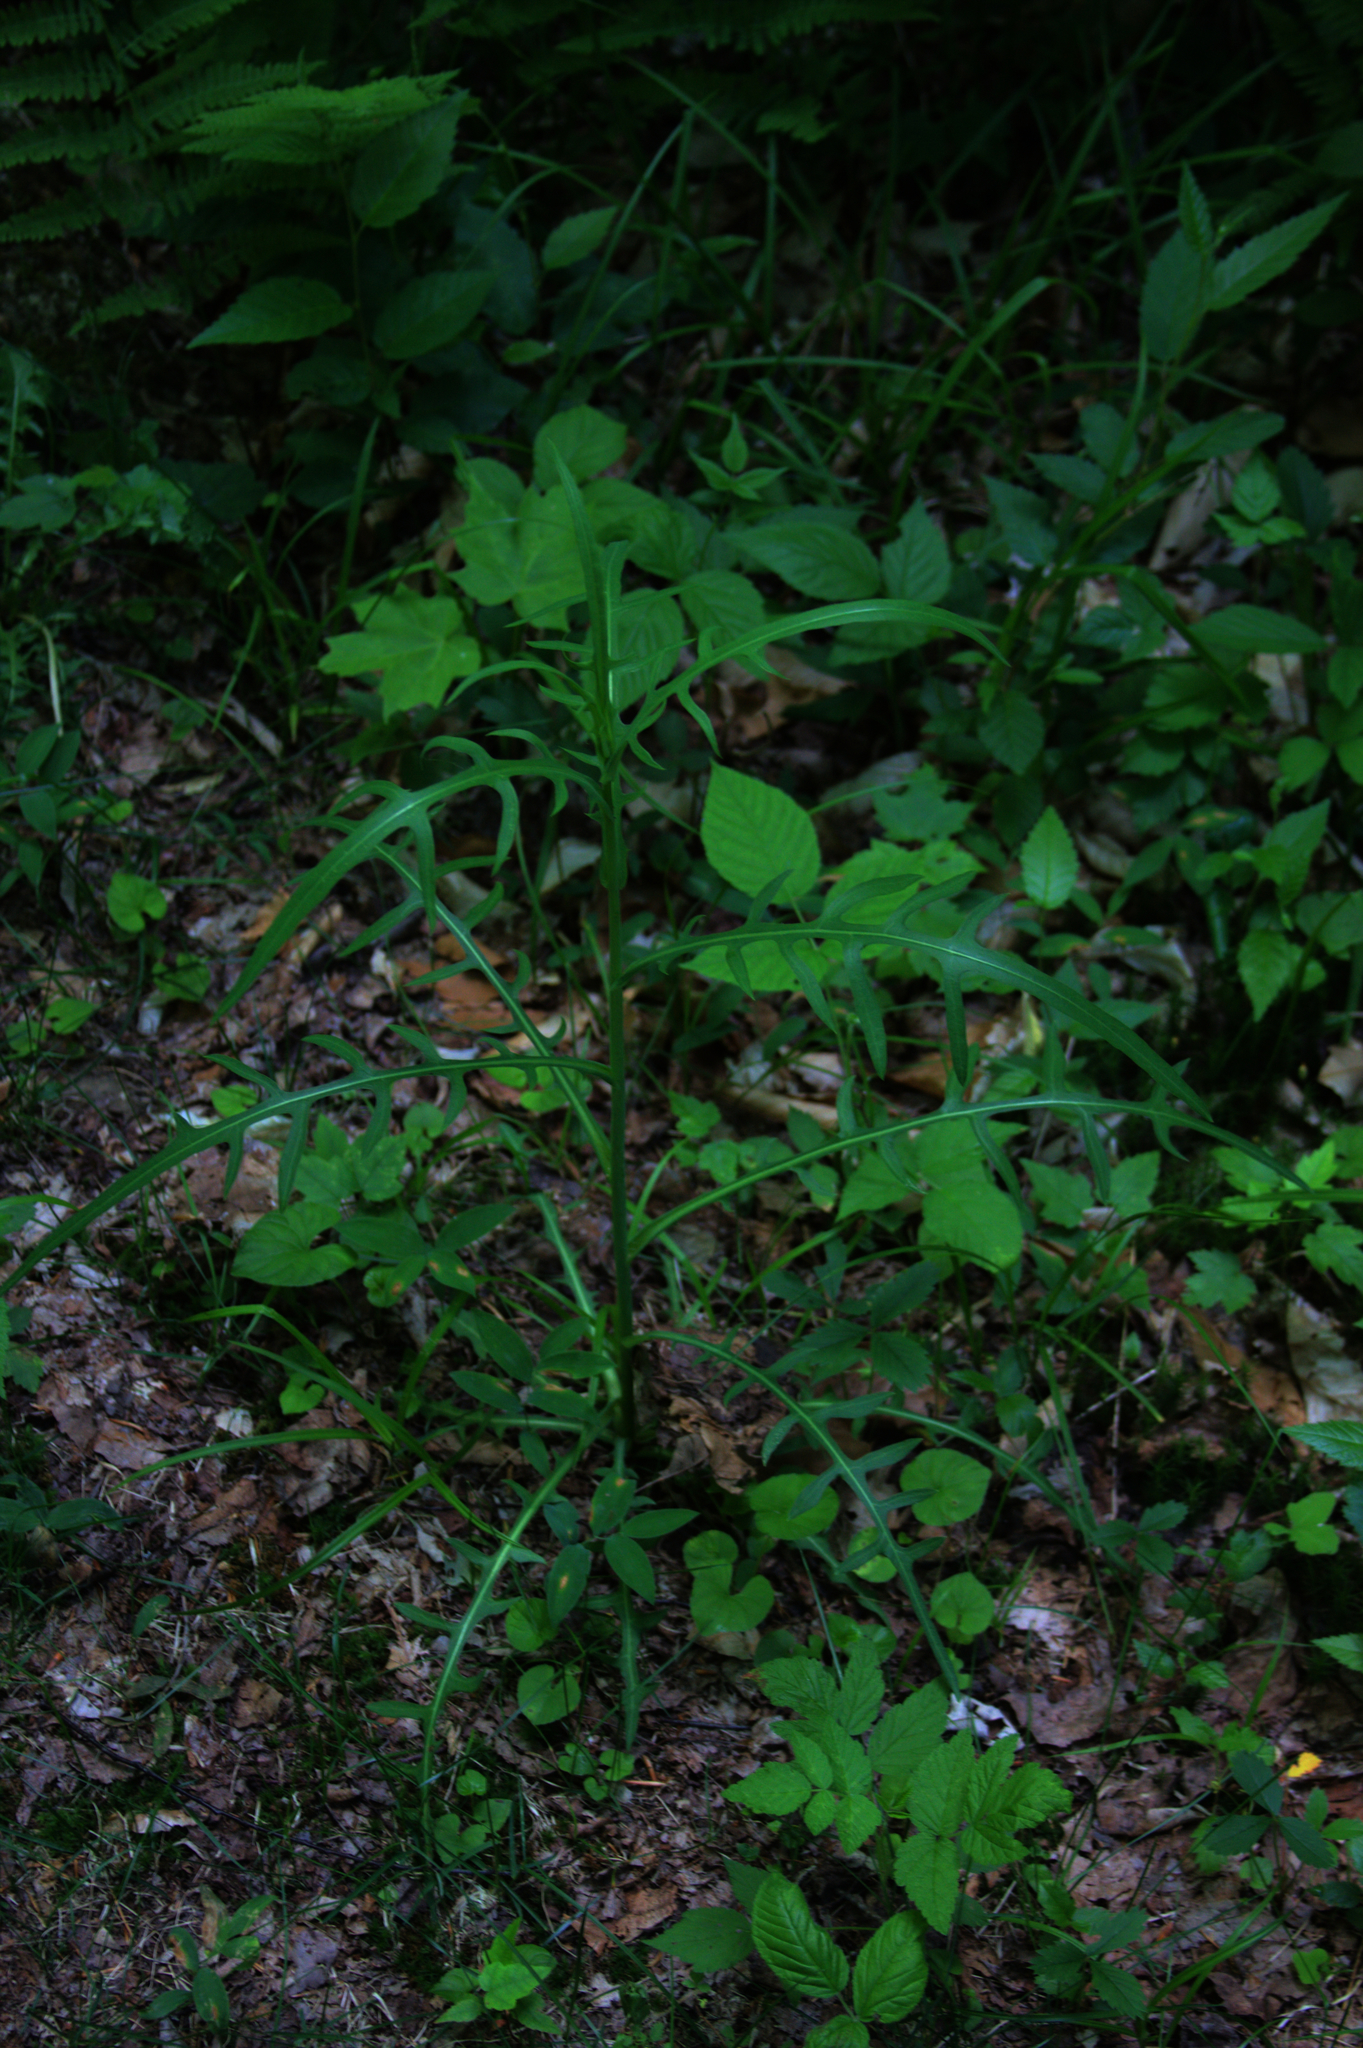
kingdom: Plantae
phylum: Tracheophyta
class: Magnoliopsida
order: Asterales
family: Asteraceae
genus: Lactuca
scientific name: Lactuca canadensis
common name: Canada lettuce
